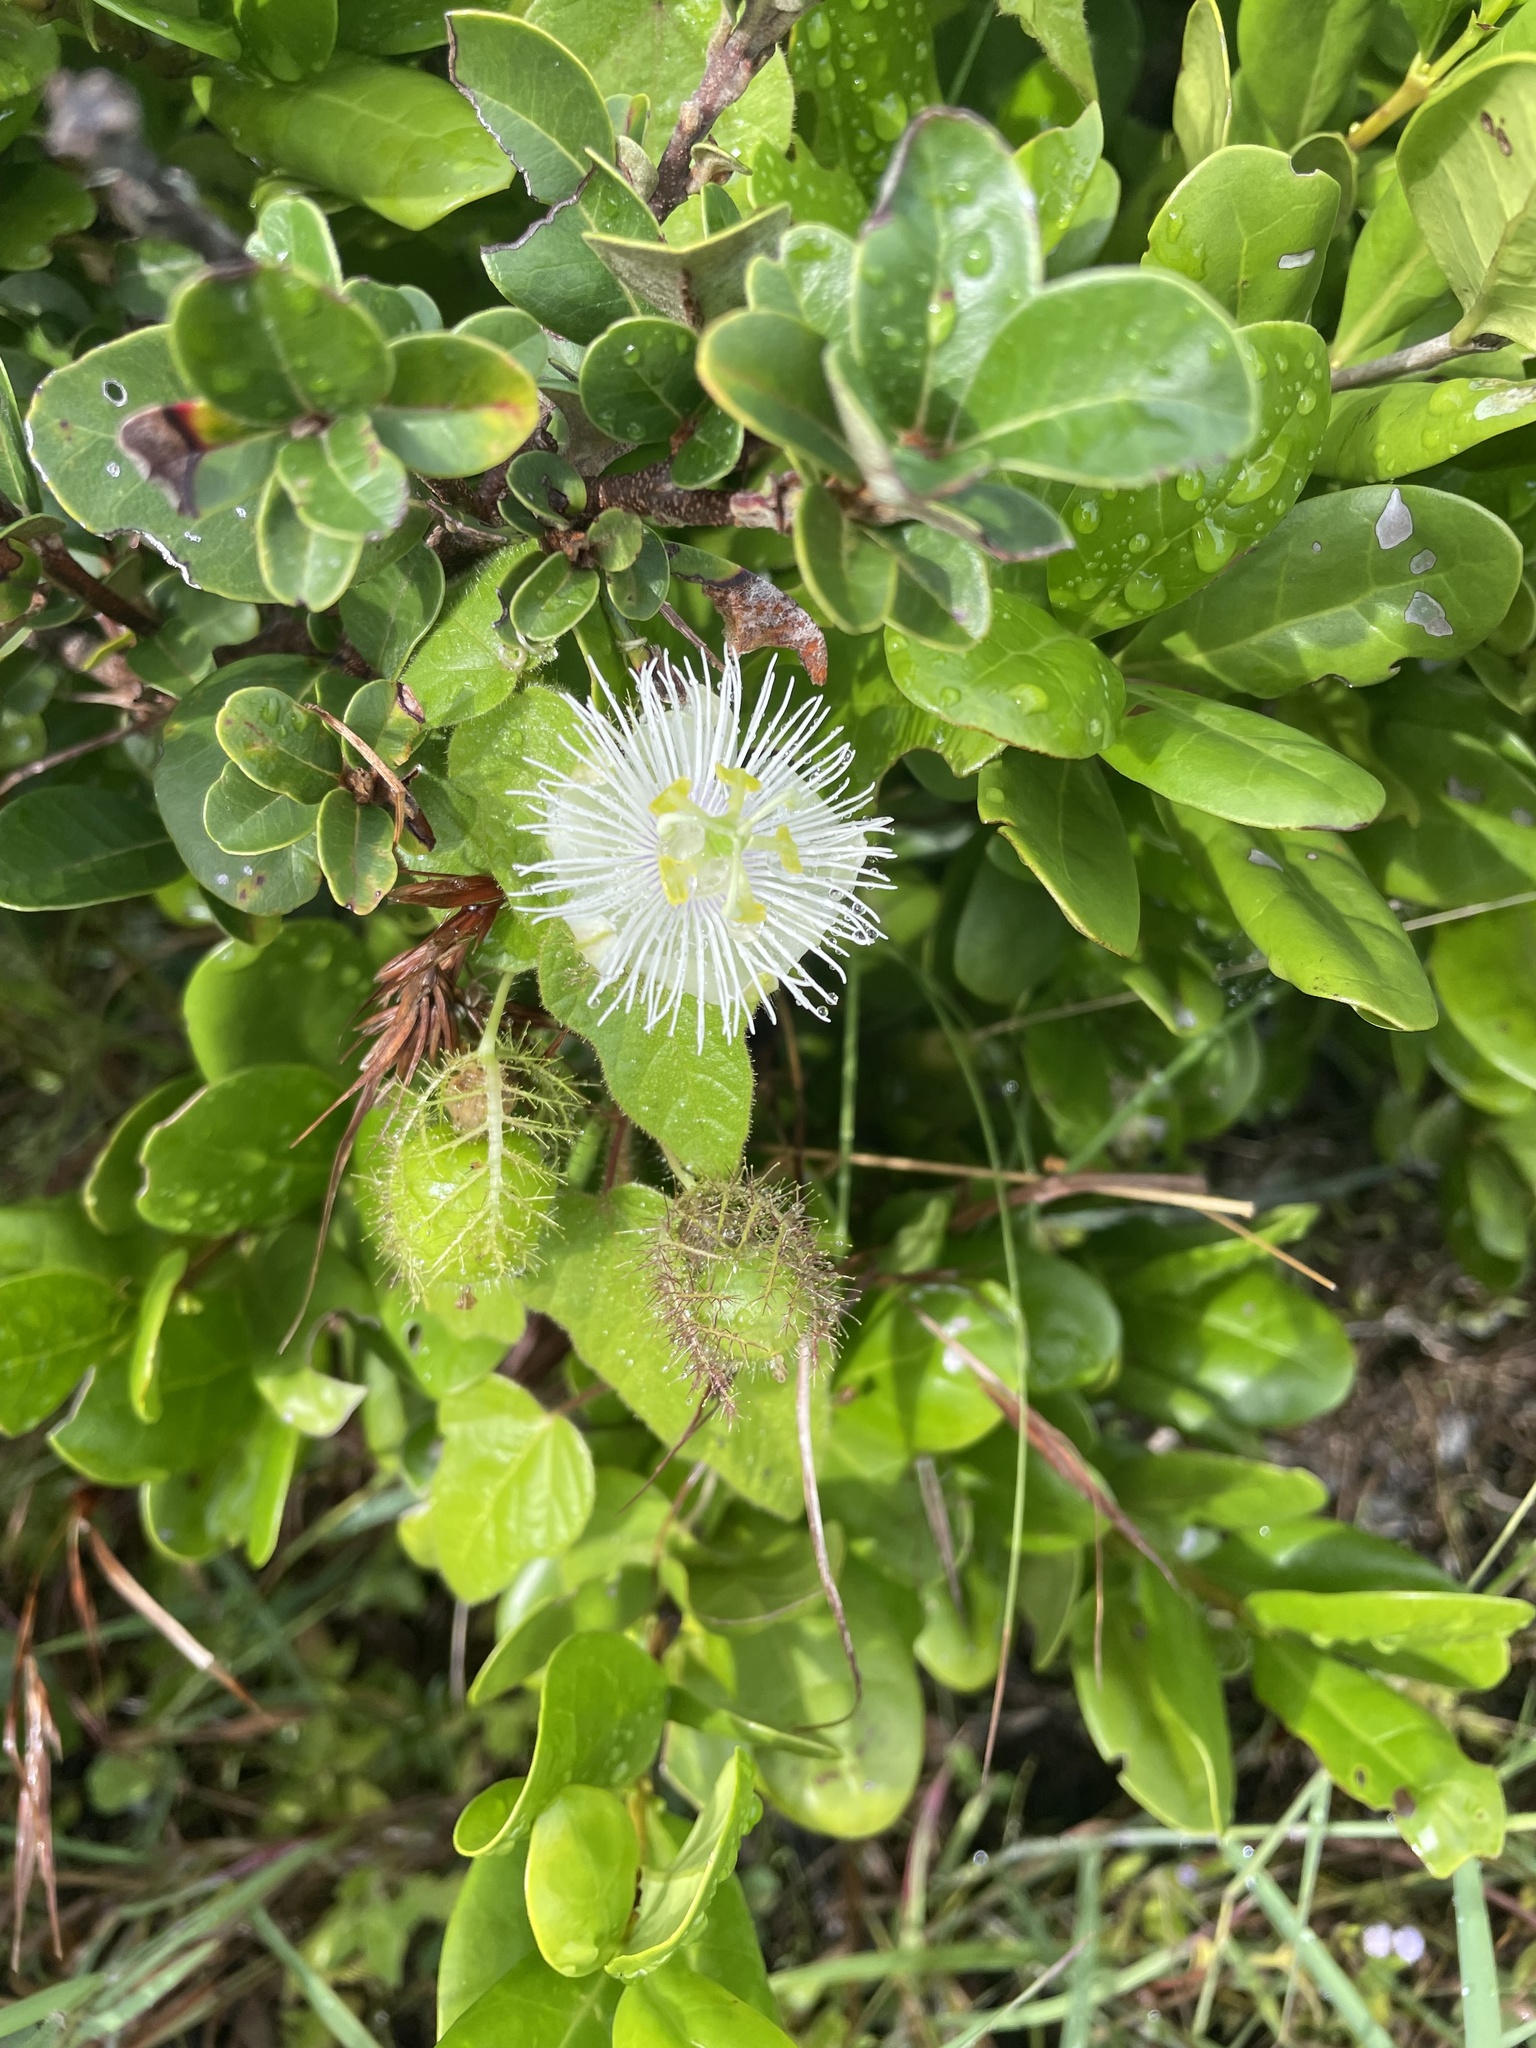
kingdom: Plantae
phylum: Tracheophyta
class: Magnoliopsida
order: Malpighiales
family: Passifloraceae
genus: Passiflora
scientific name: Passiflora foetida
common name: Fetid passionflower
